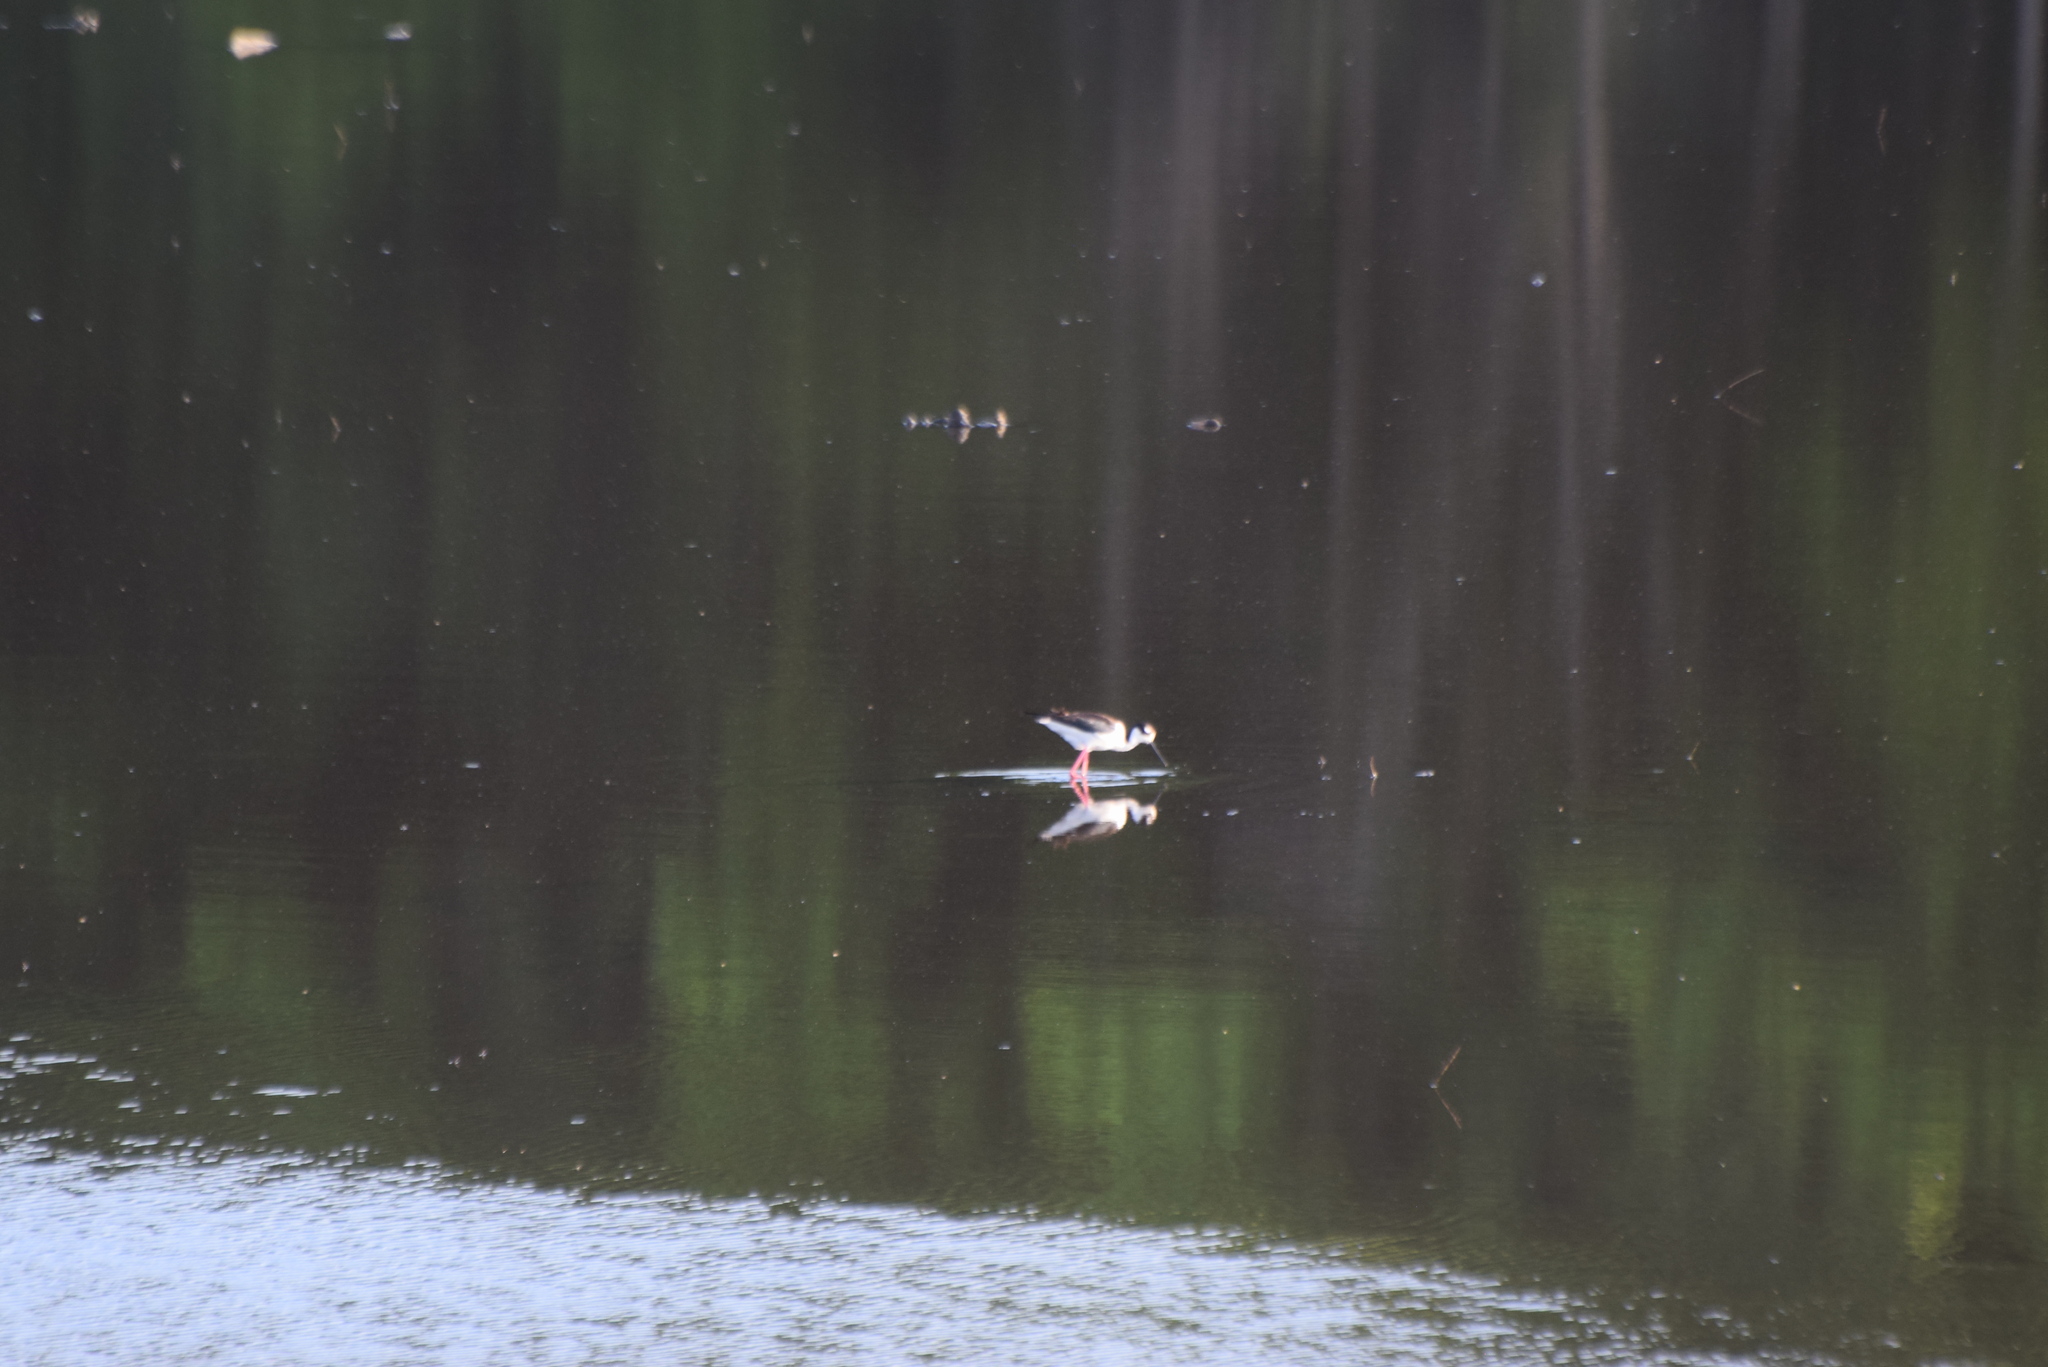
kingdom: Animalia
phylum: Chordata
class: Aves
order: Charadriiformes
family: Recurvirostridae
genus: Himantopus
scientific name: Himantopus mexicanus
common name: Black-necked stilt
